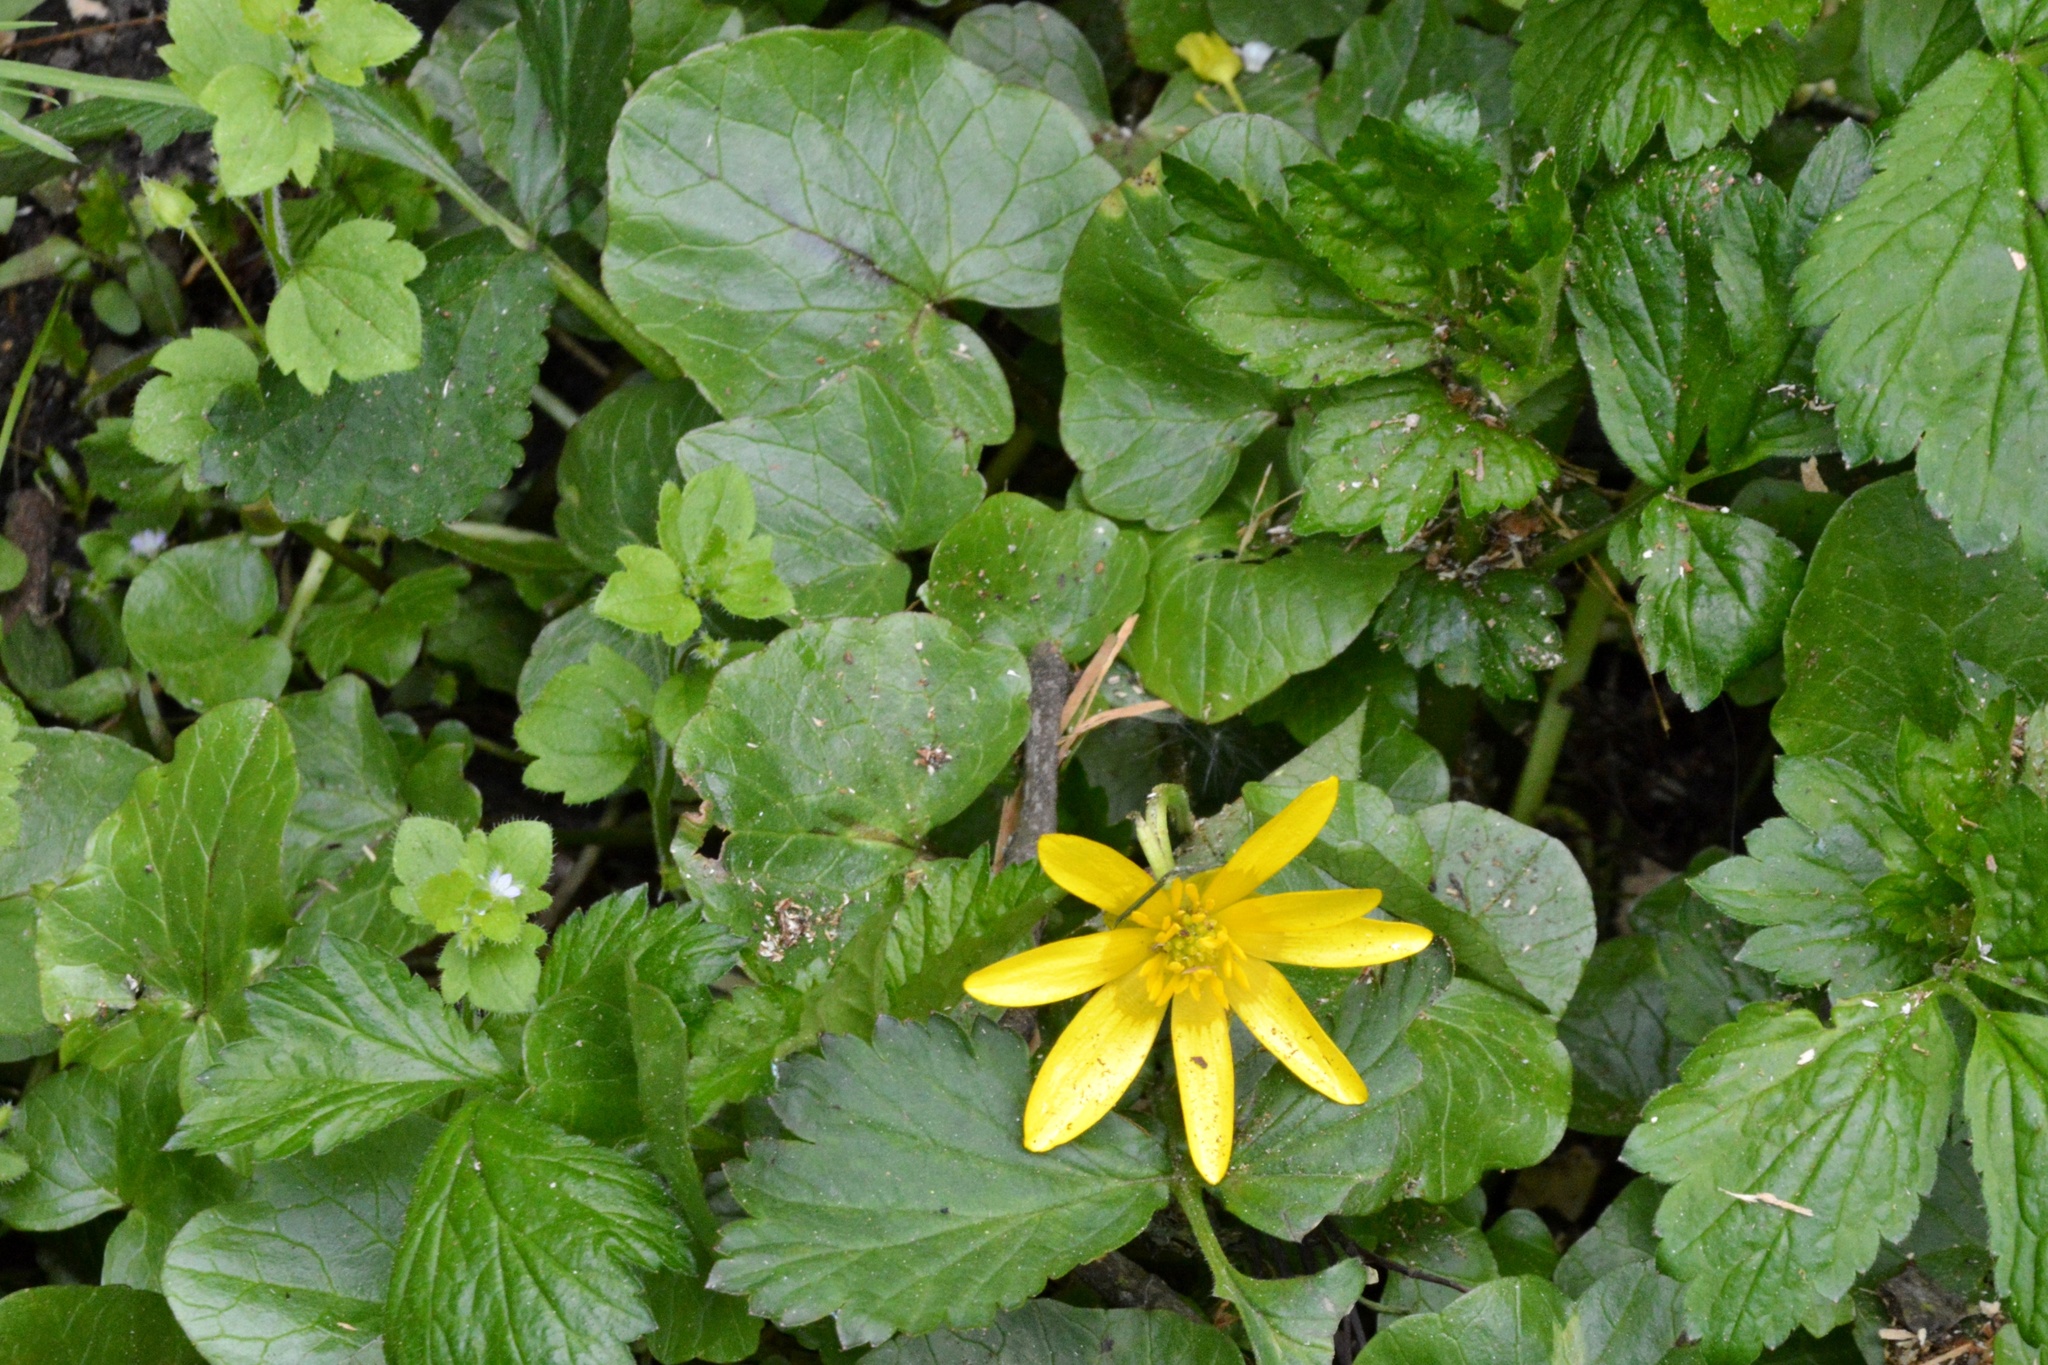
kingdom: Plantae
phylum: Tracheophyta
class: Magnoliopsida
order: Ranunculales
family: Ranunculaceae
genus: Ficaria
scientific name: Ficaria verna
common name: Lesser celandine
